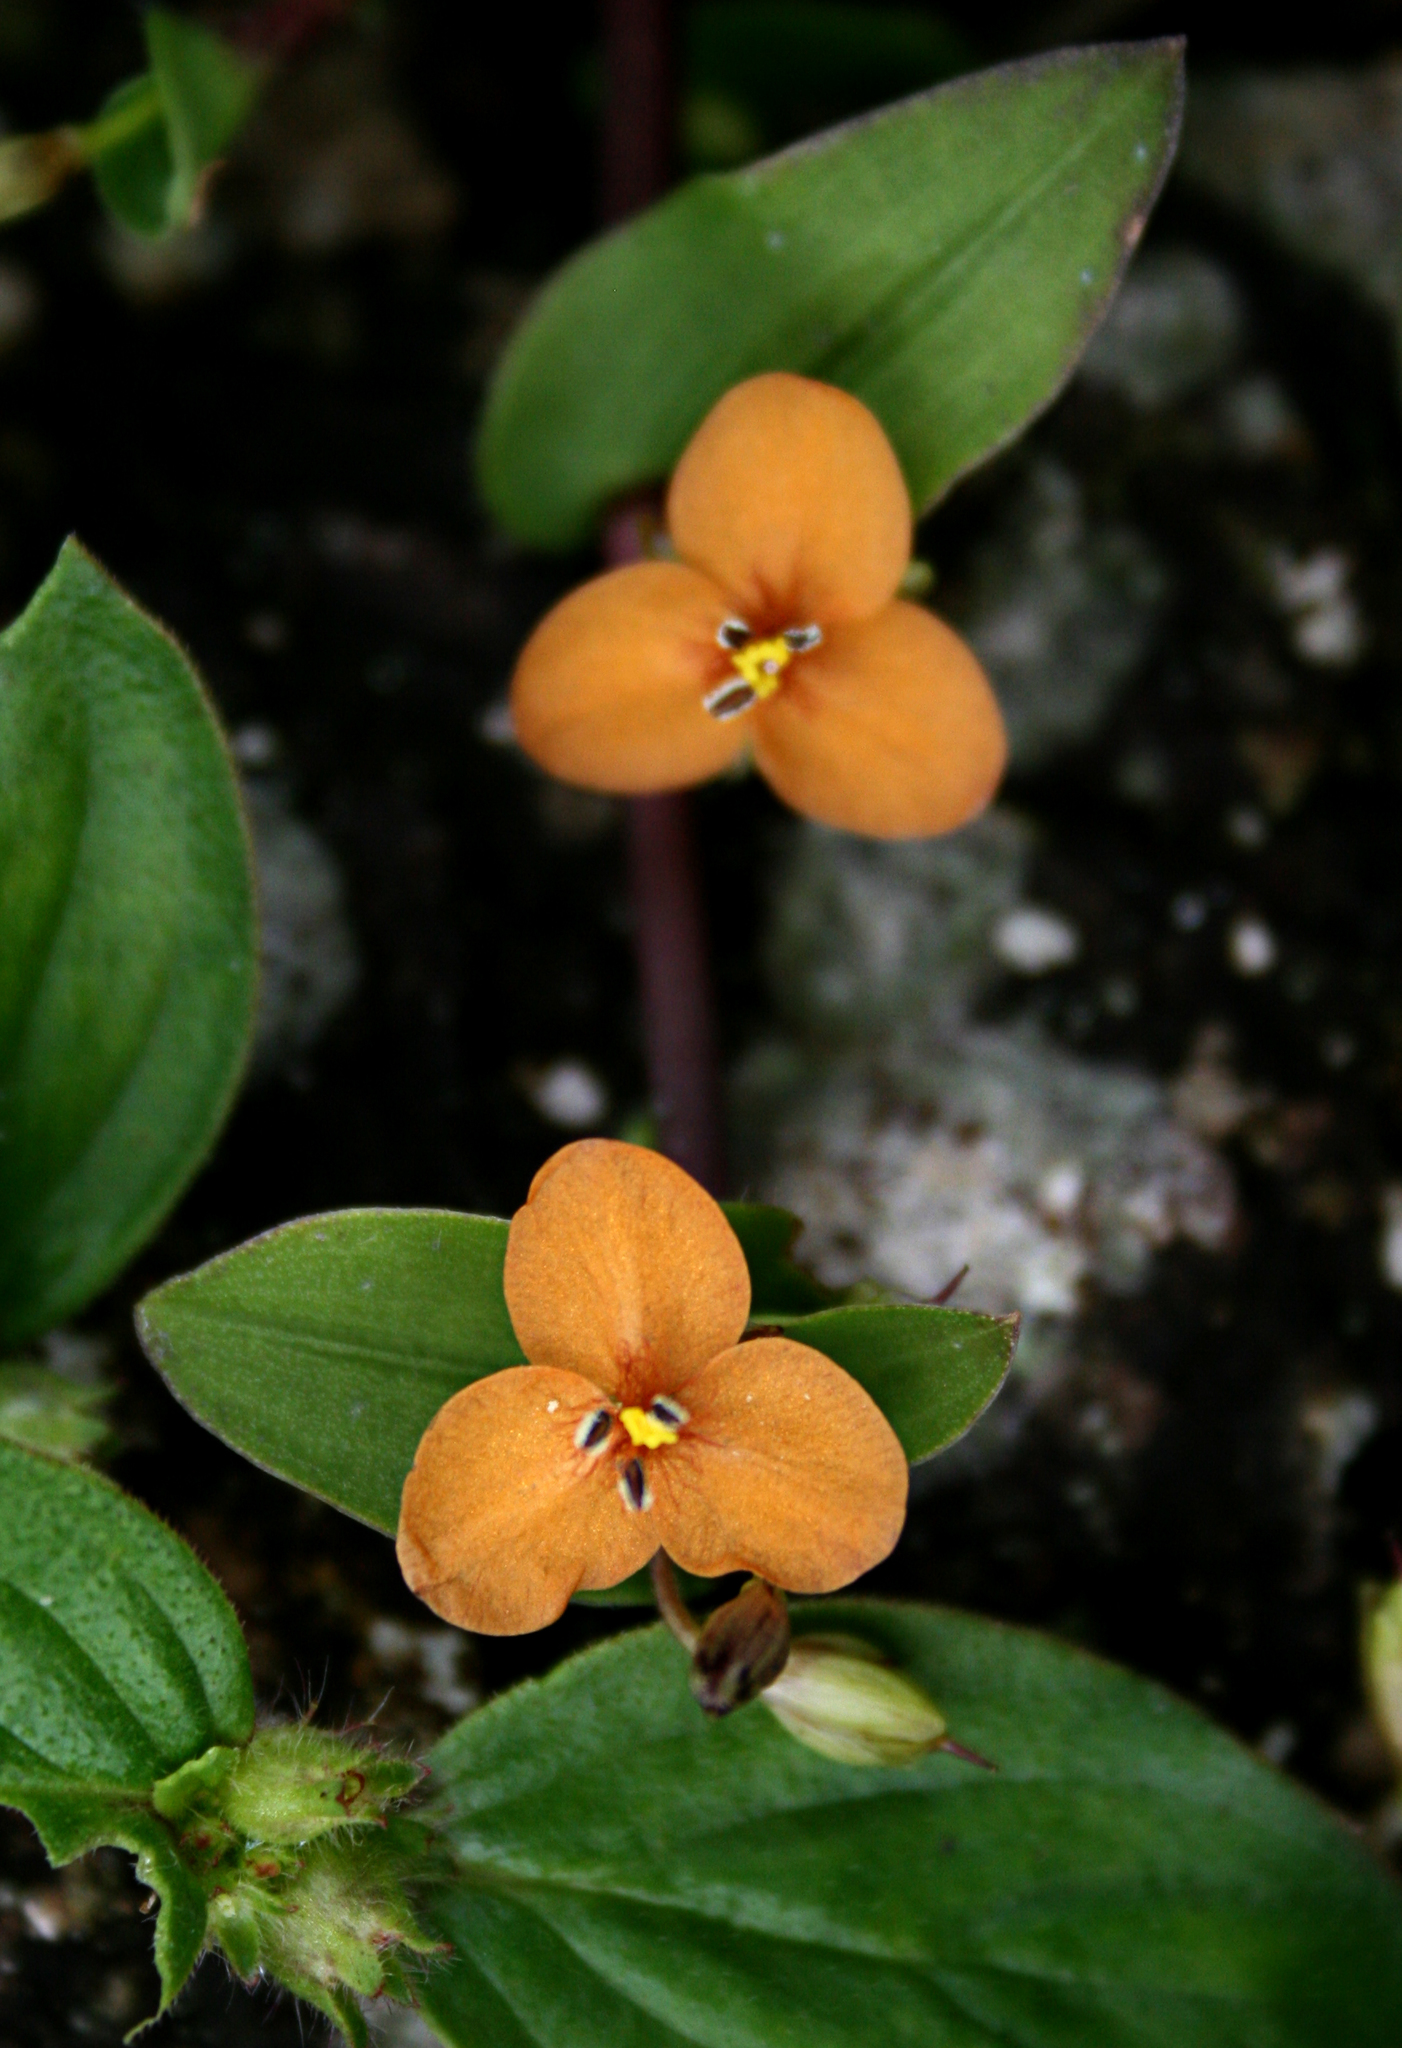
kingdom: Plantae
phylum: Tracheophyta
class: Liliopsida
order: Commelinales
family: Commelinaceae
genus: Murdannia
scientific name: Murdannia versicolor
